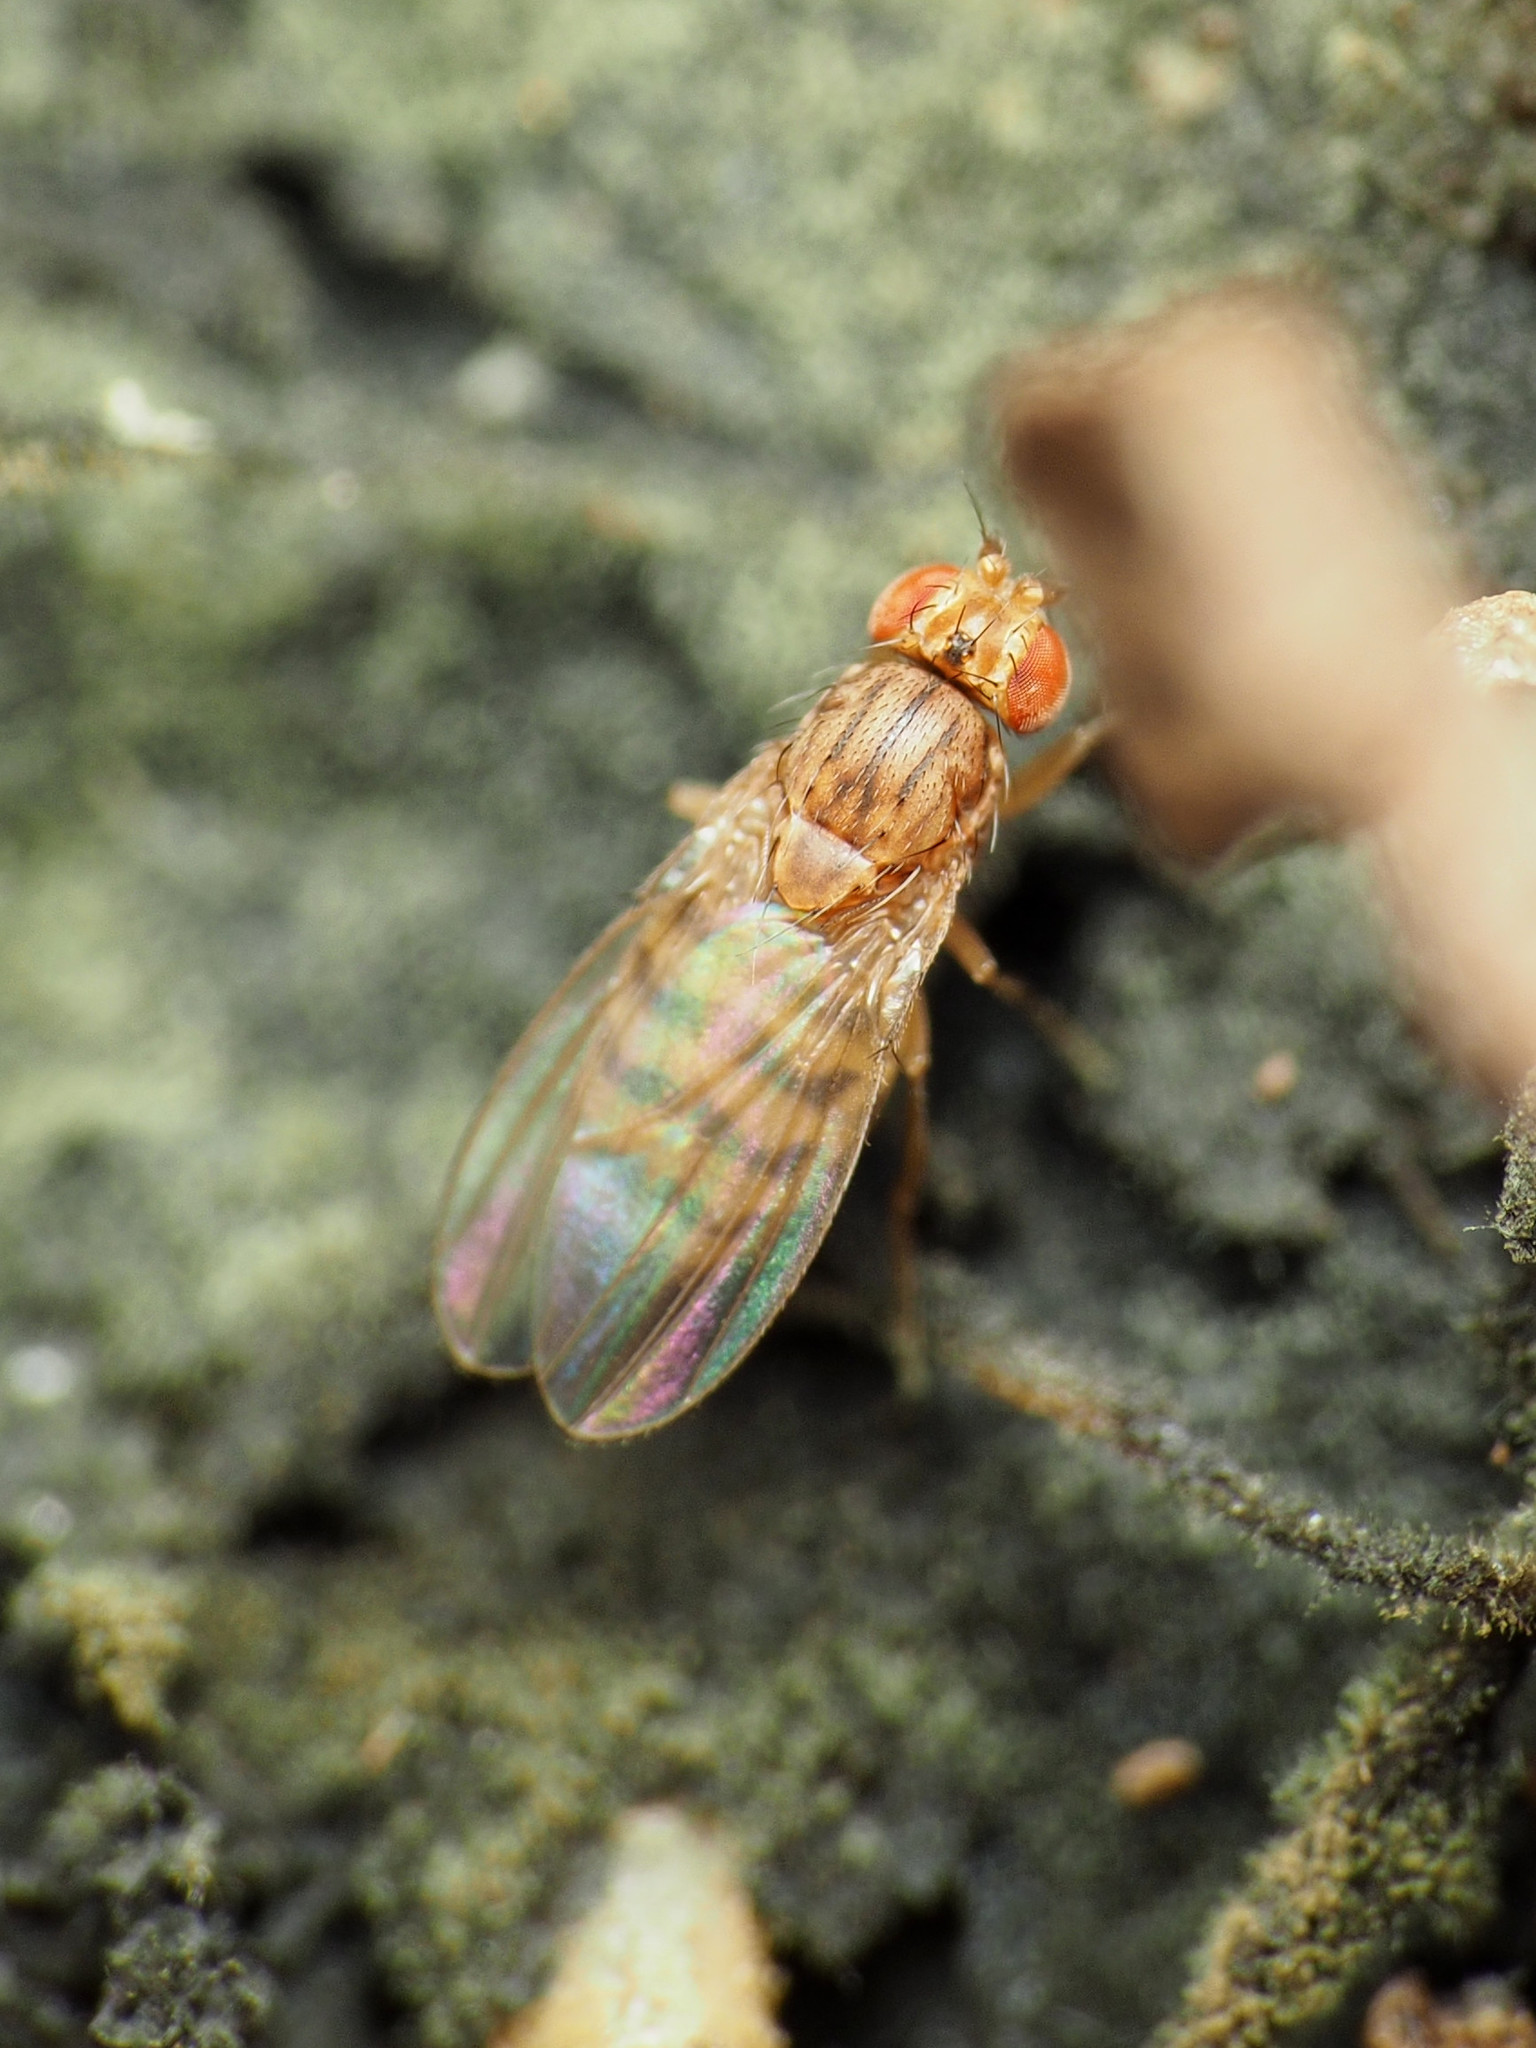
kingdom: Animalia
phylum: Arthropoda
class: Insecta
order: Diptera
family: Drosophilidae
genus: Drosophila
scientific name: Drosophila busckii
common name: Pomace fly
